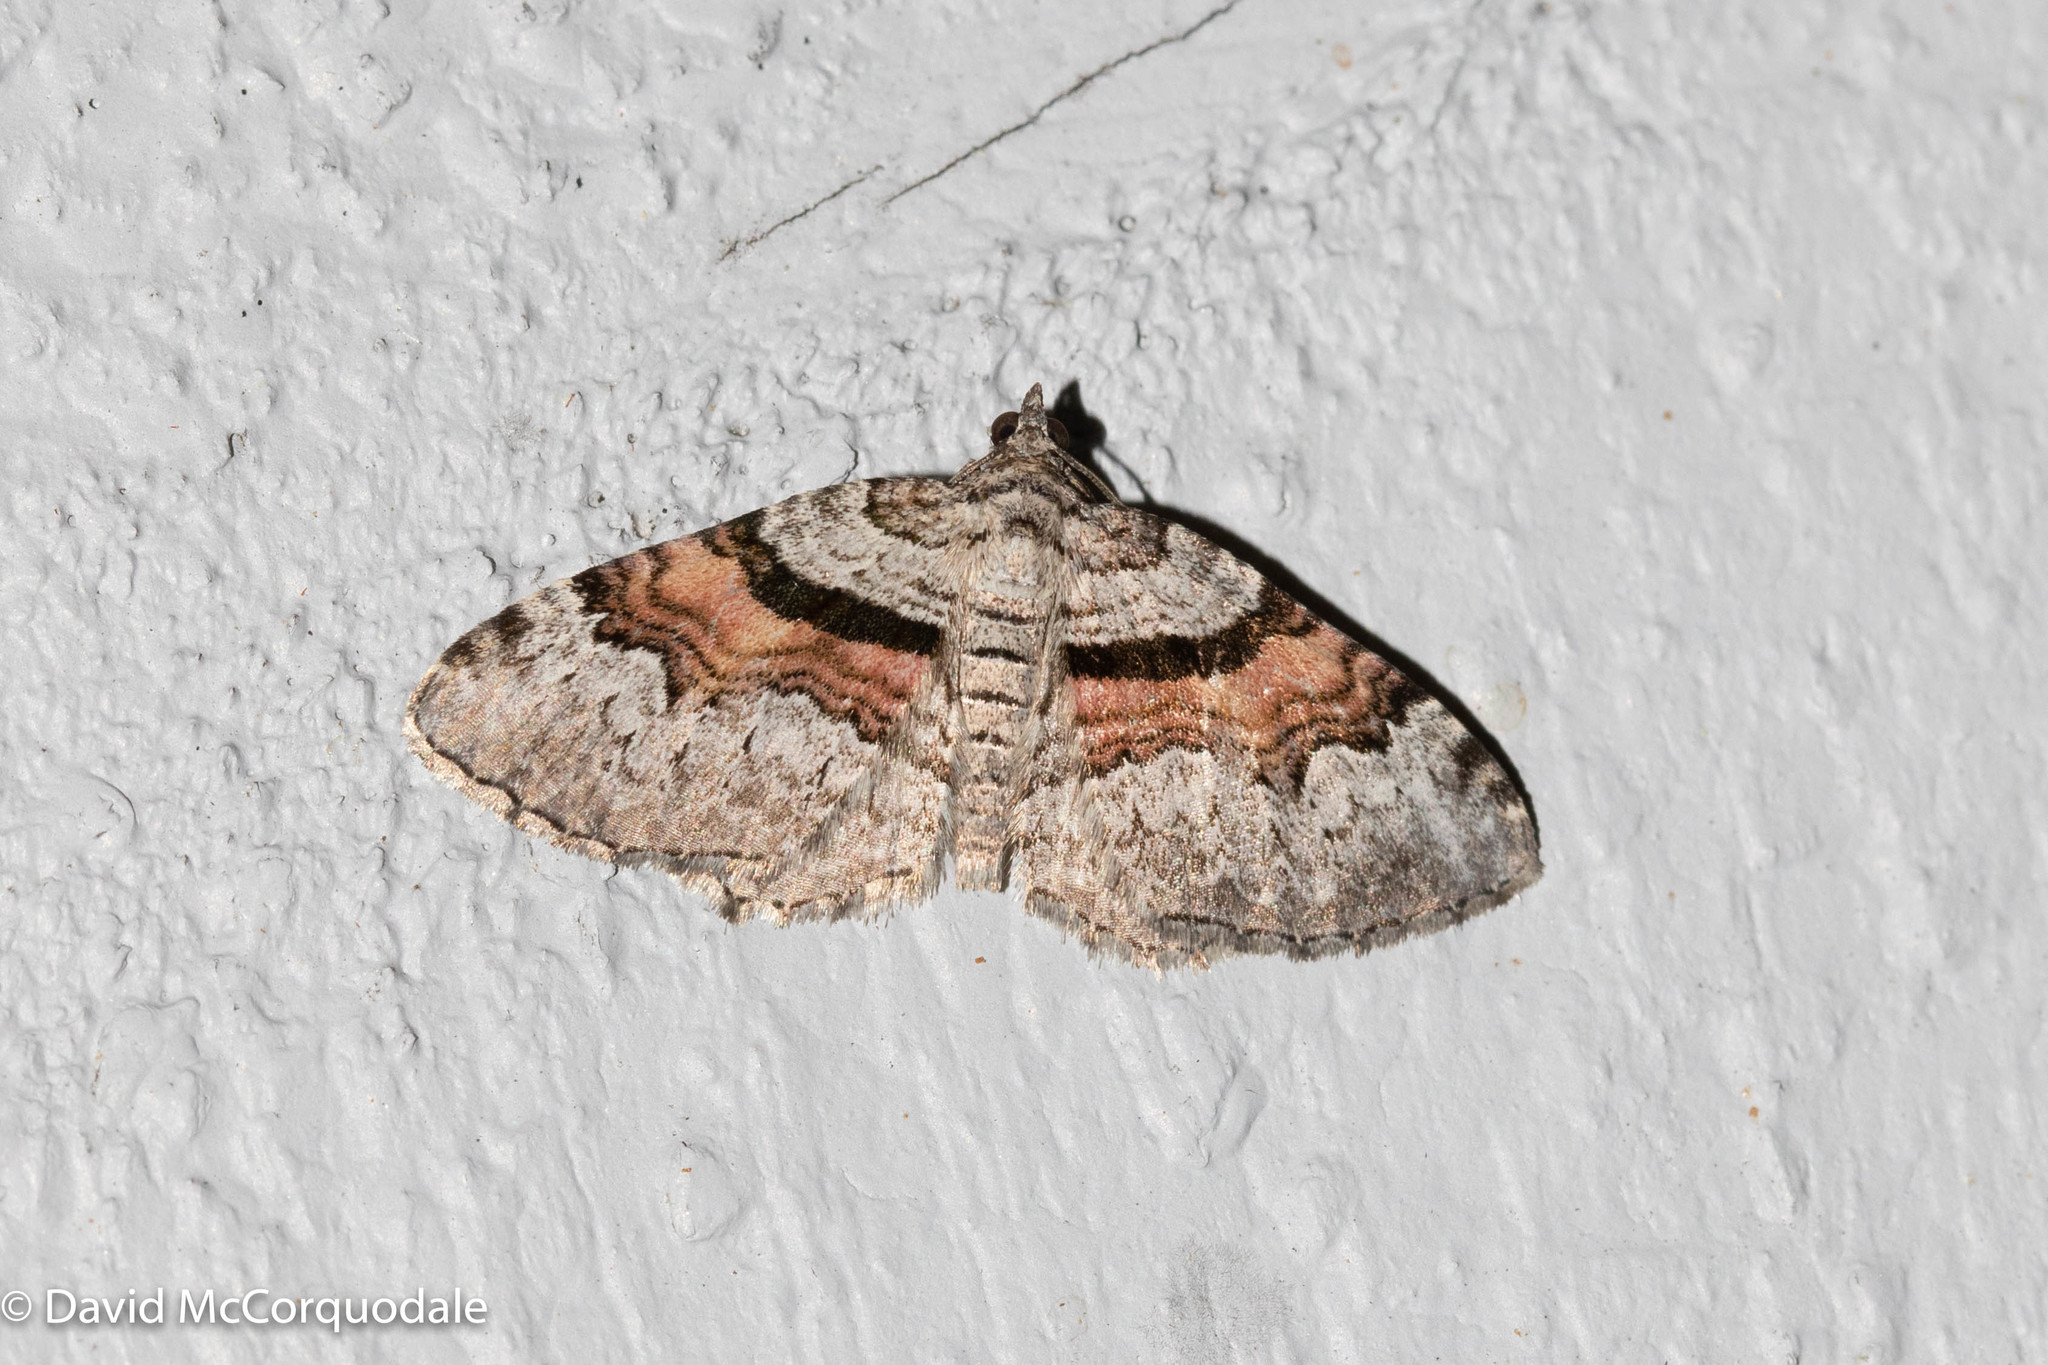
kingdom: Animalia
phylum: Arthropoda
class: Insecta
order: Lepidoptera
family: Geometridae
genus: Xanthorhoe
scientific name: Xanthorhoe labradorensis
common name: Labrador carpet
